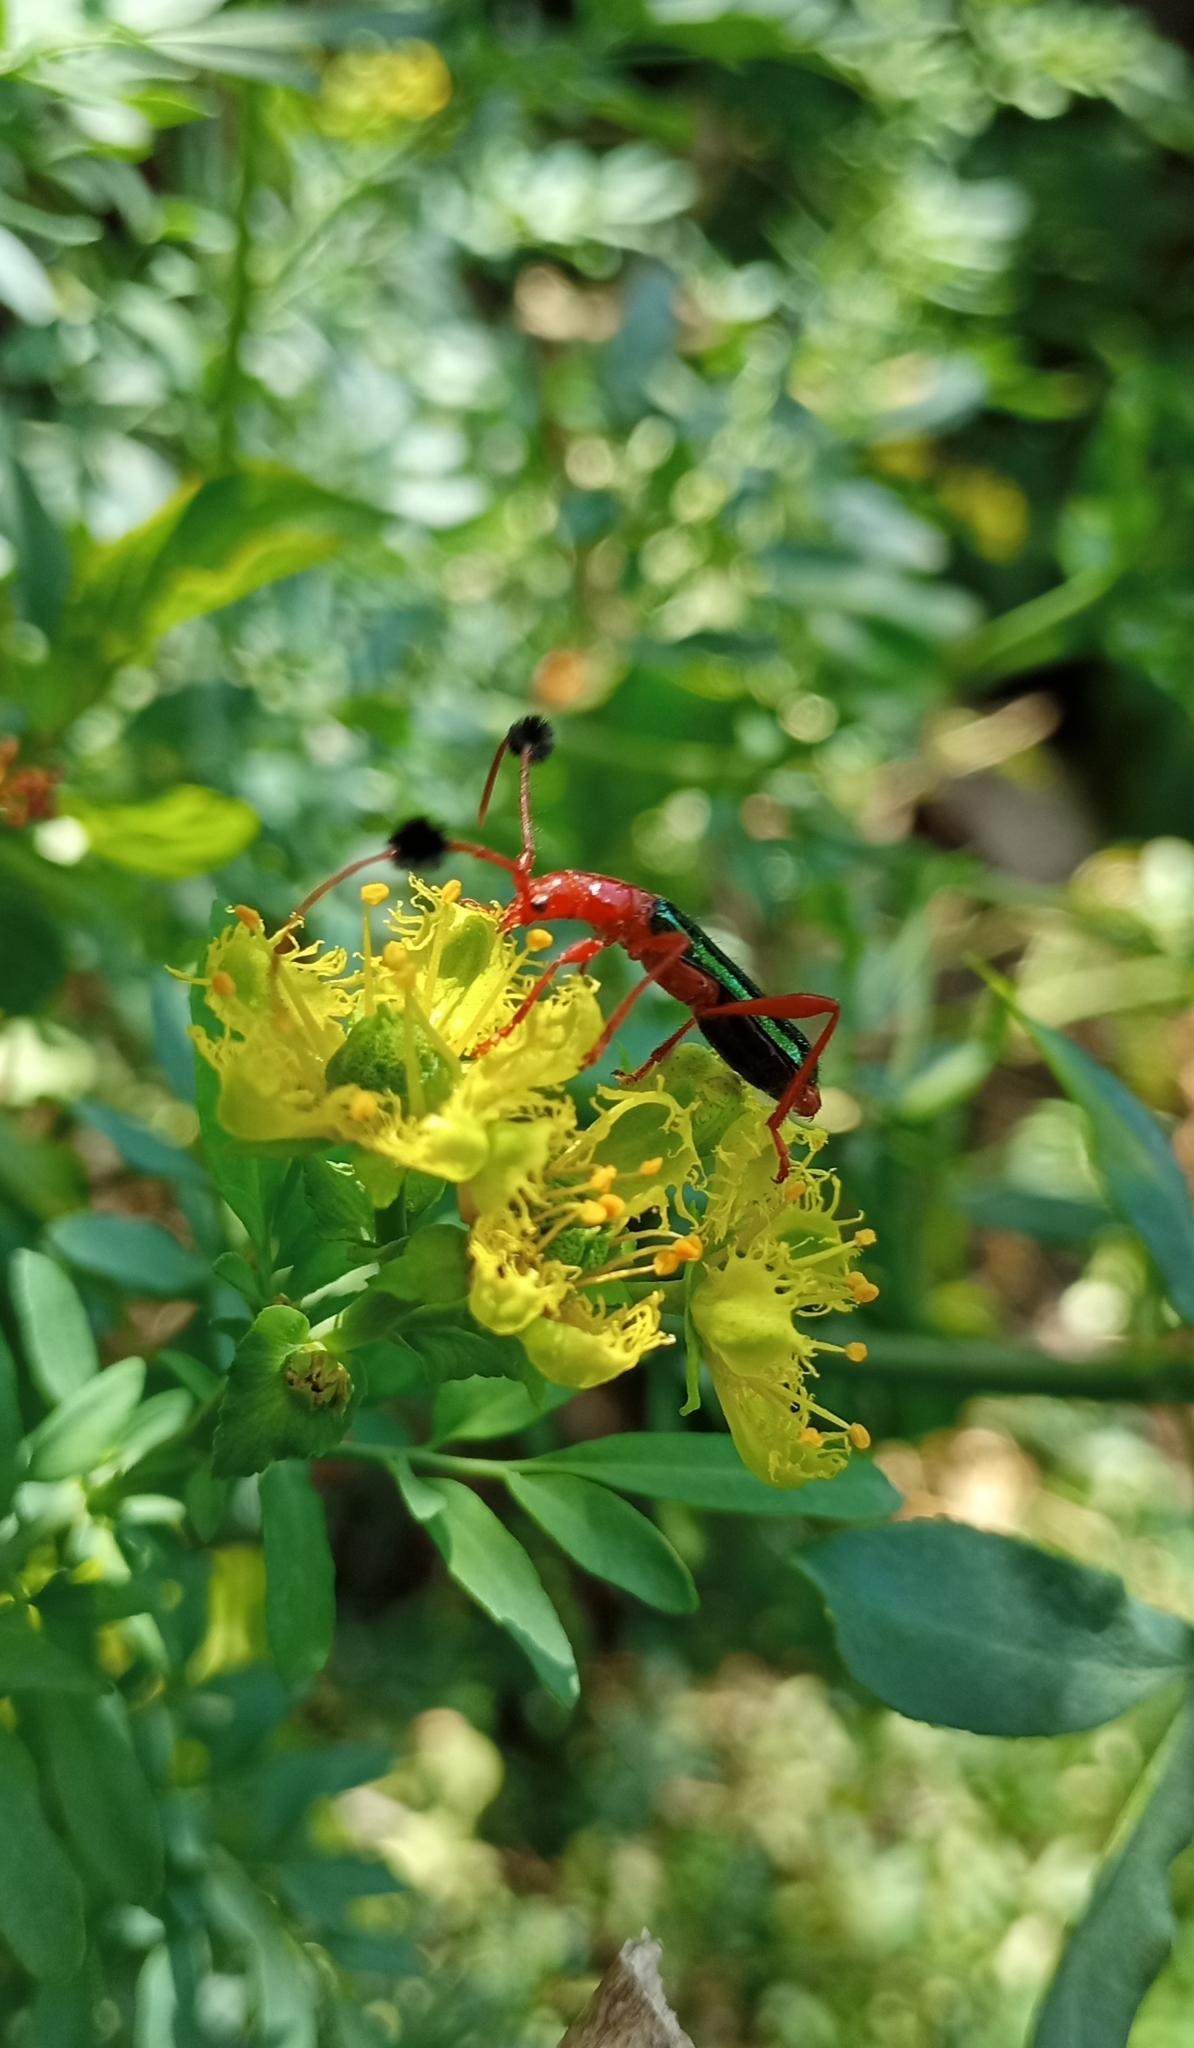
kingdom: Animalia
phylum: Arthropoda
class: Insecta
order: Coleoptera
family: Cerambycidae
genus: Paromoeocerus
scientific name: Paromoeocerus barbicornis
